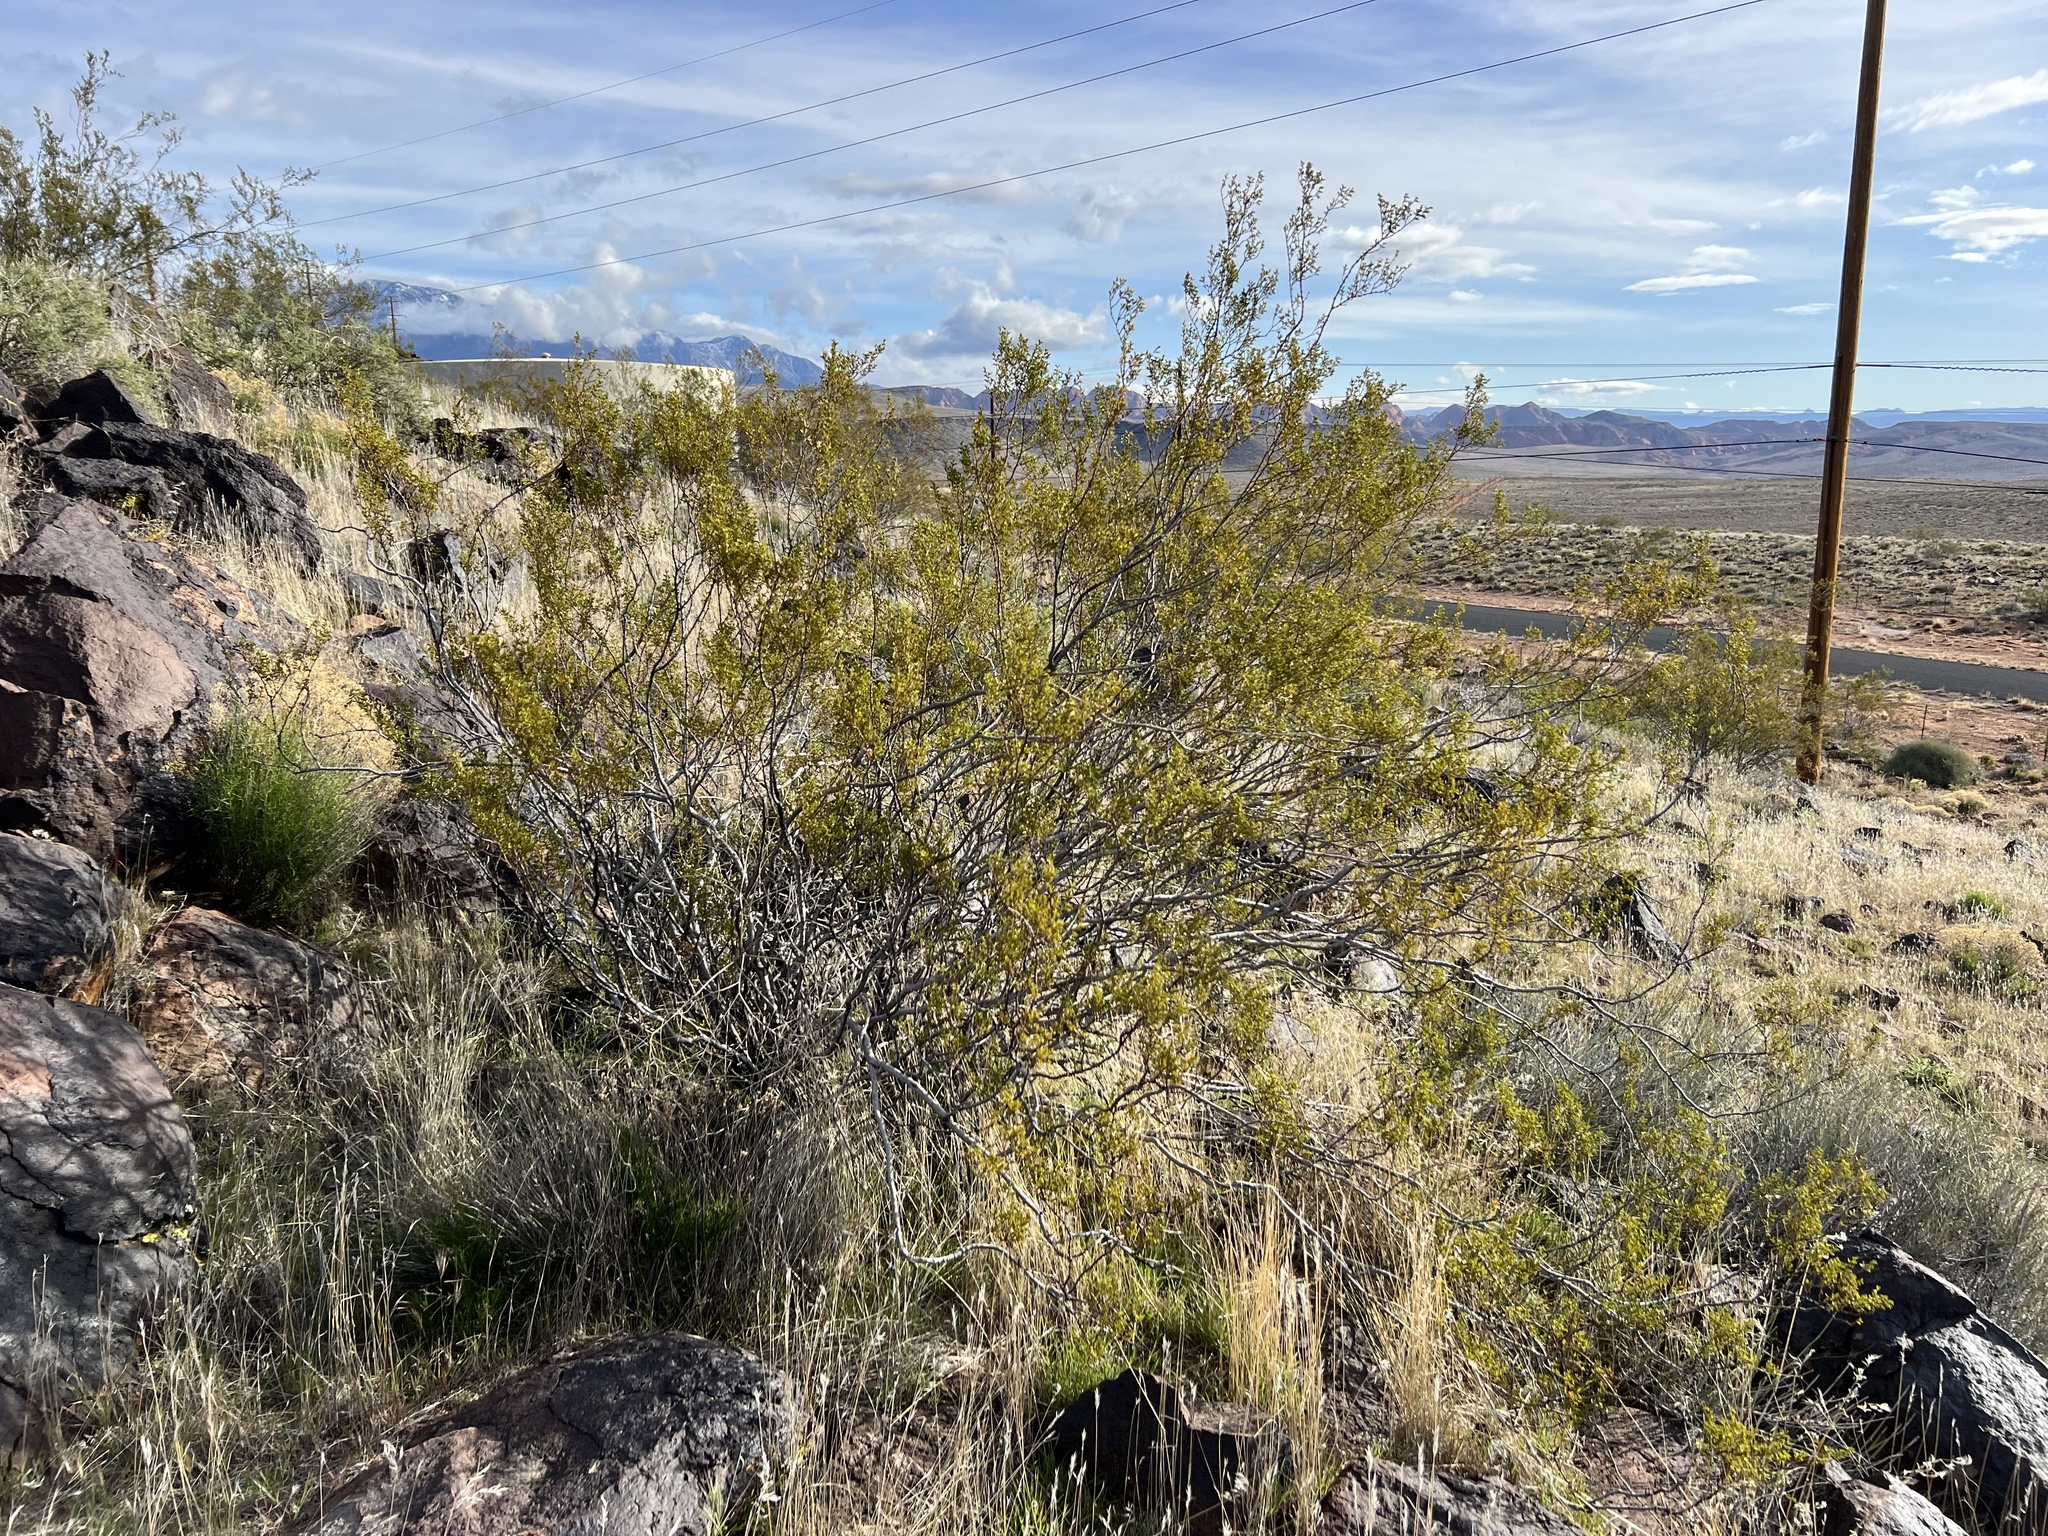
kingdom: Plantae
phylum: Tracheophyta
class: Magnoliopsida
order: Zygophyllales
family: Zygophyllaceae
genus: Larrea
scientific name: Larrea tridentata
